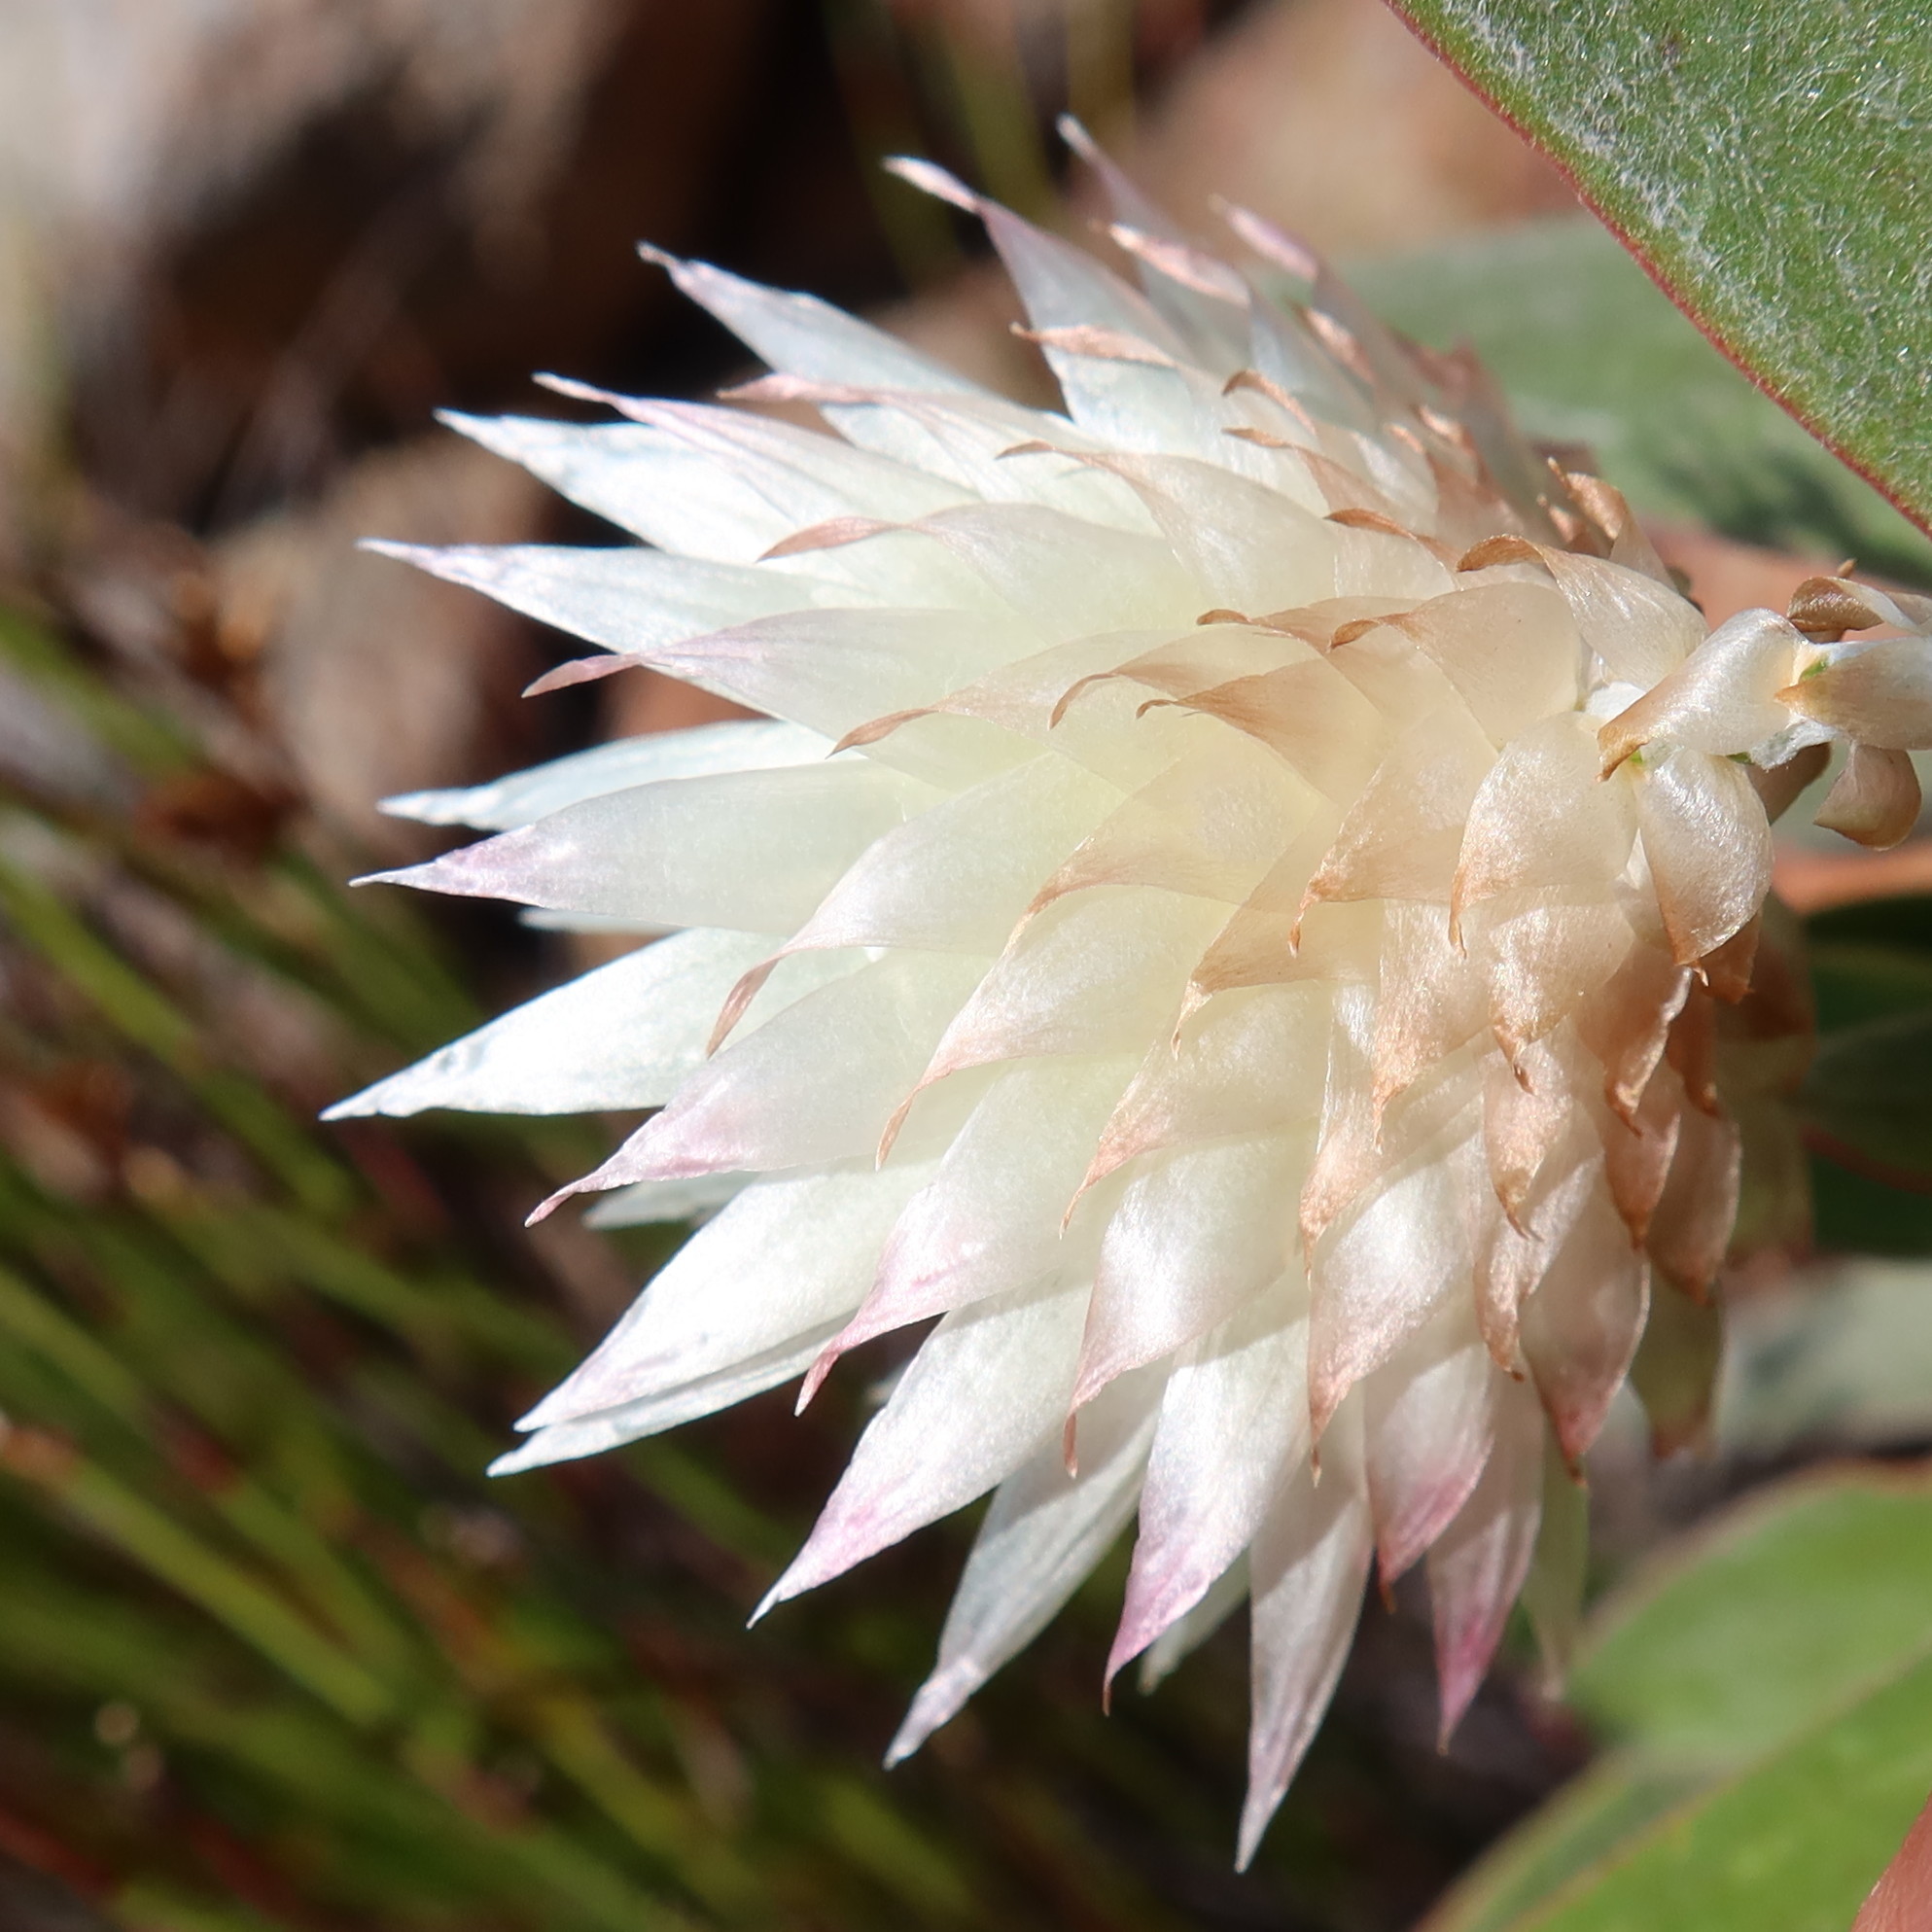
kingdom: Plantae
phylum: Tracheophyta
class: Magnoliopsida
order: Asterales
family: Asteraceae
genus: Edmondia
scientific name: Edmondia sesamoides
